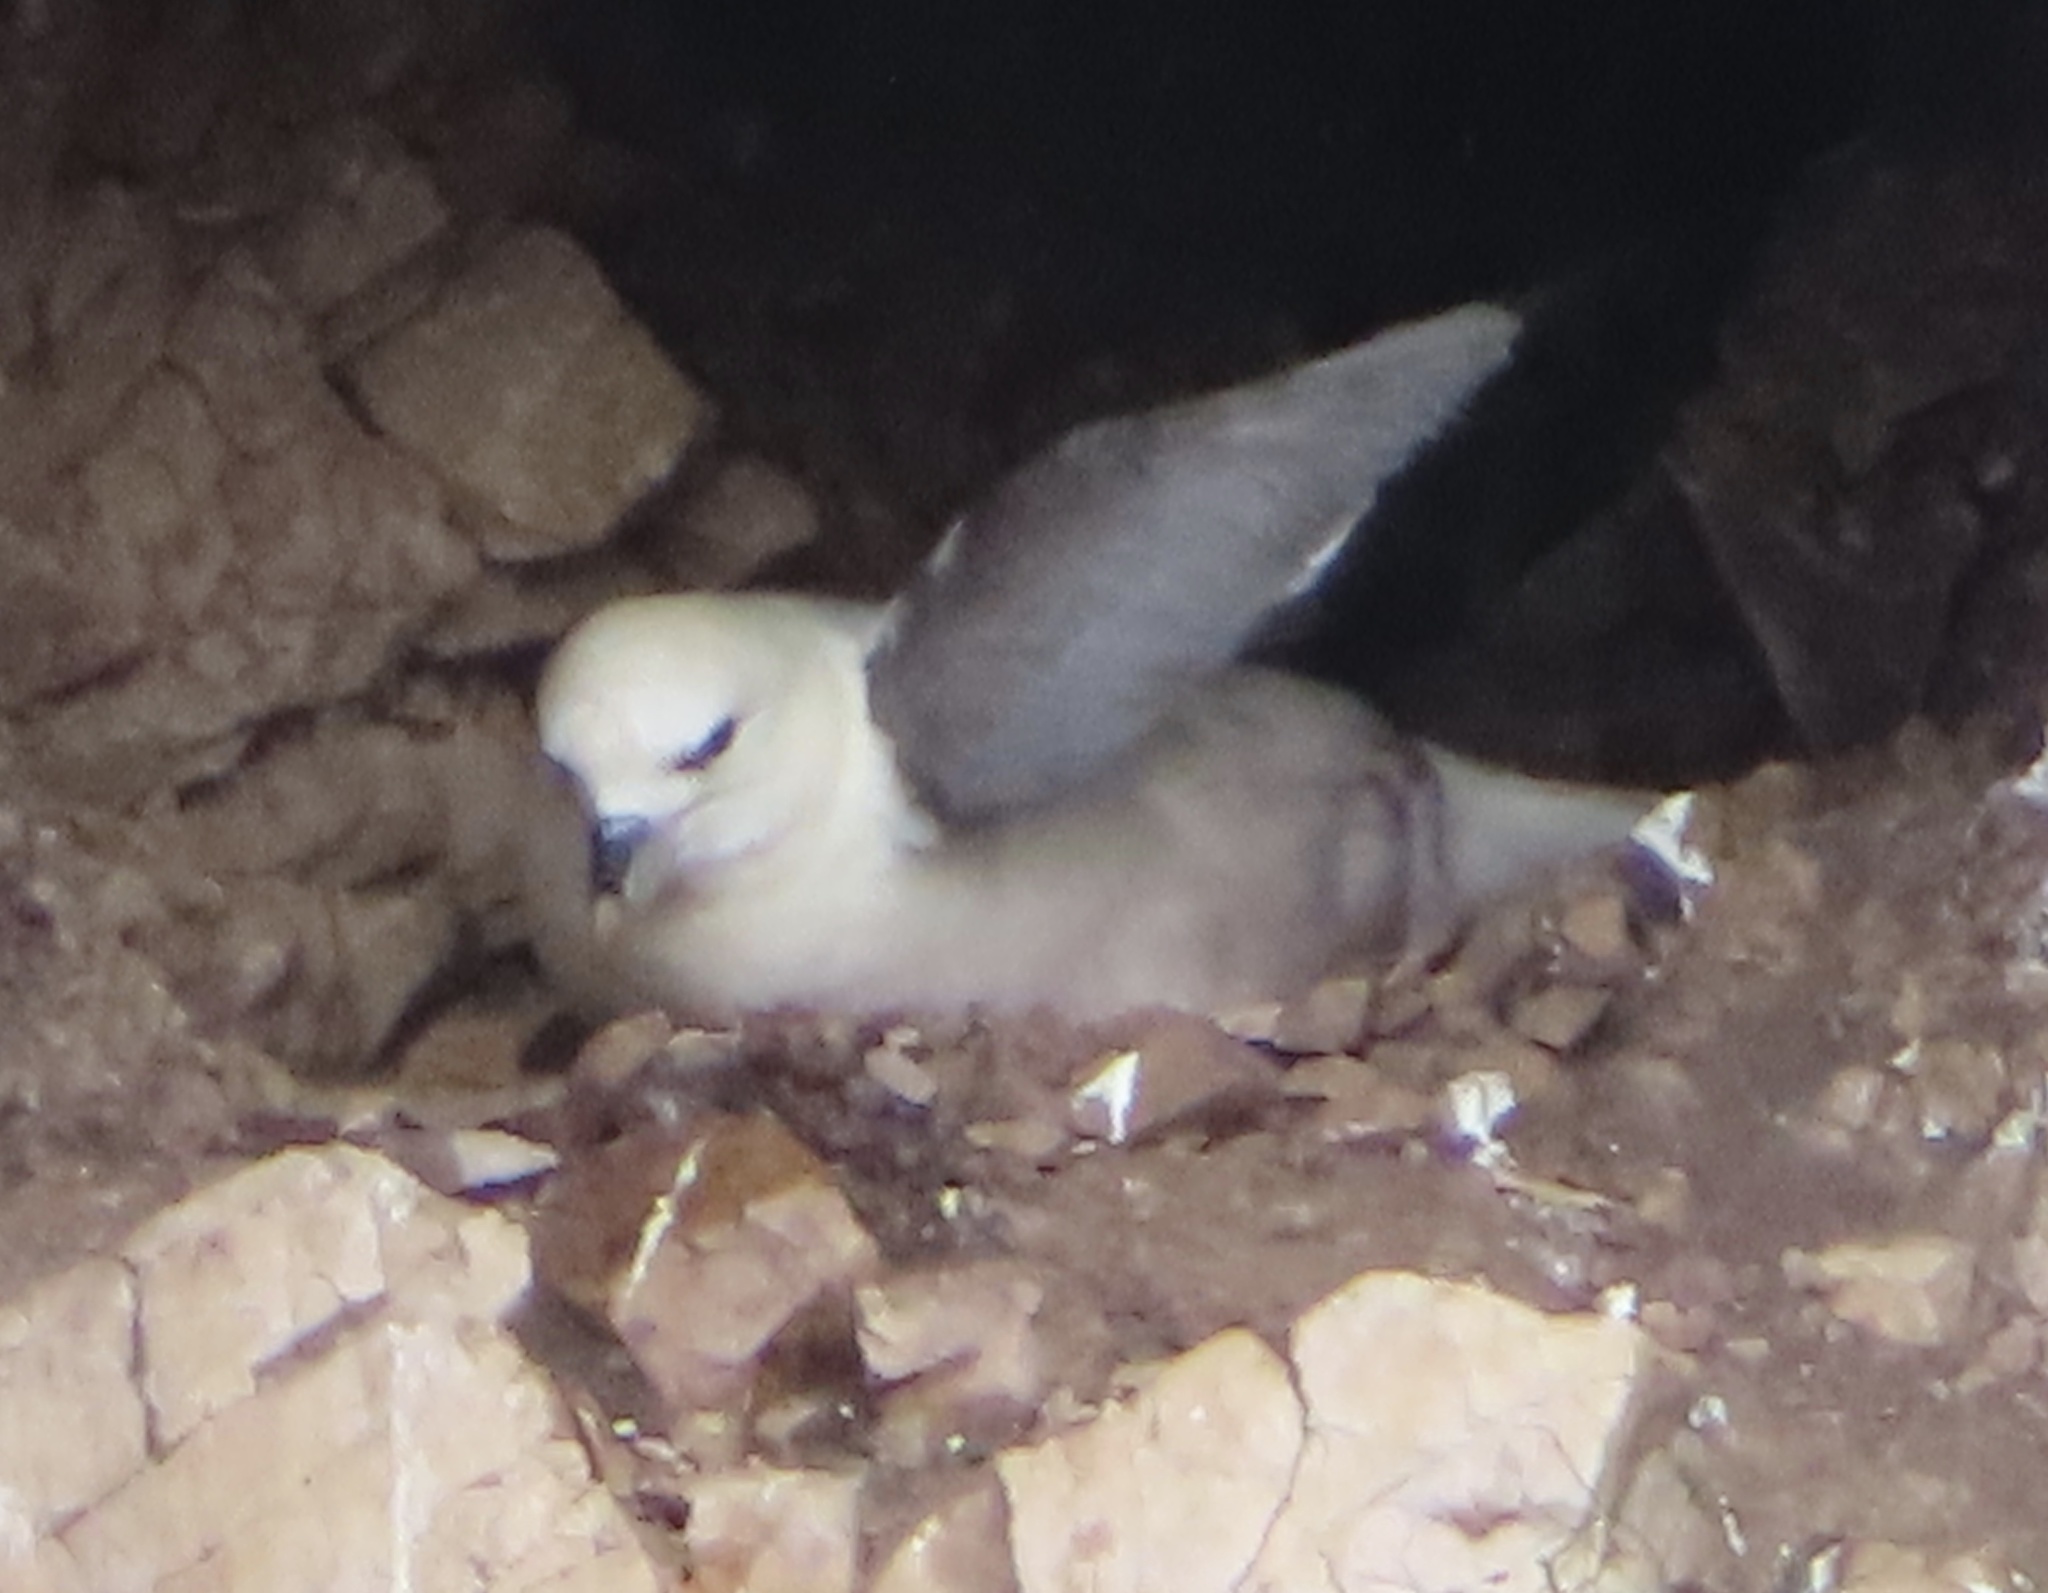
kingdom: Animalia
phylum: Chordata
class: Aves
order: Procellariiformes
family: Procellariidae
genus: Fulmarus
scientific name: Fulmarus glacialis
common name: Northern fulmar
